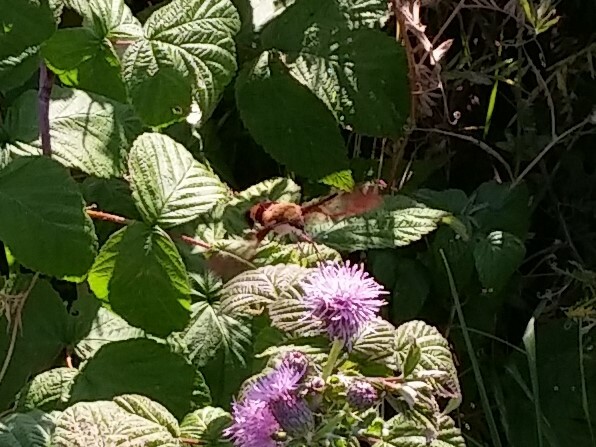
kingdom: Animalia
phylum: Arthropoda
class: Insecta
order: Lepidoptera
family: Sphingidae
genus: Hemaris
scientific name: Hemaris thysbe
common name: Common clear-wing
